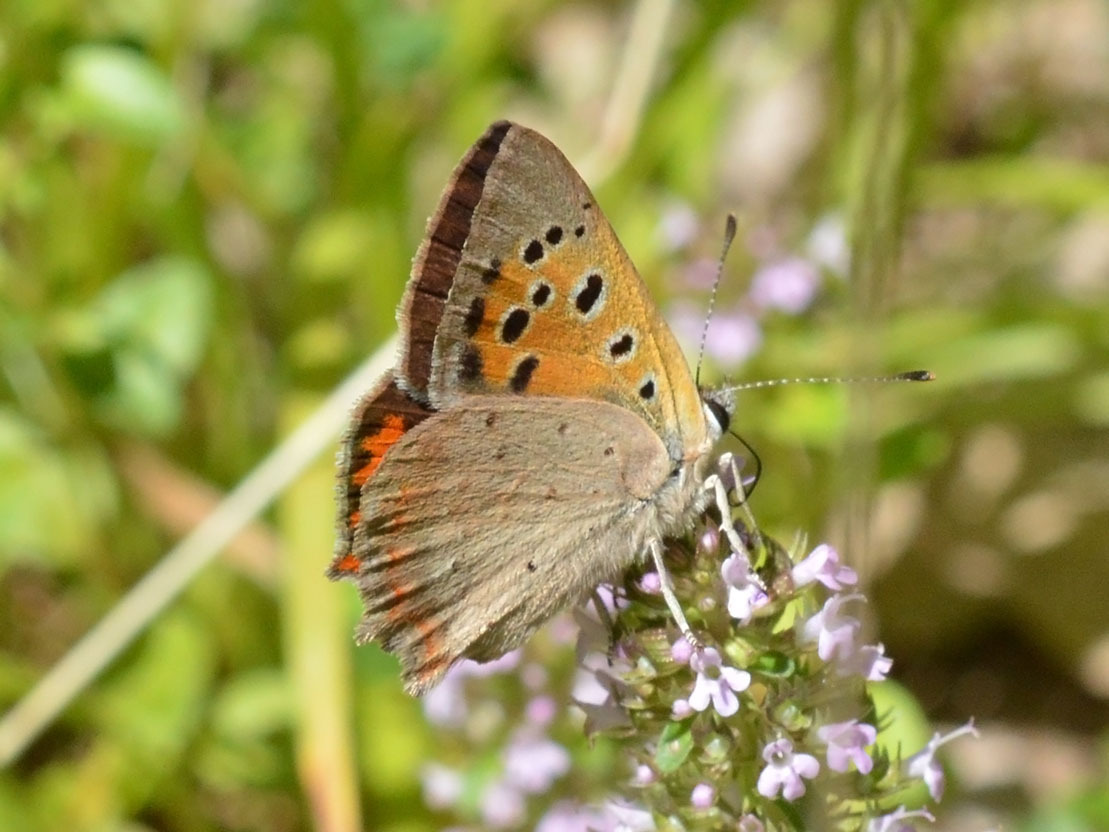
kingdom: Animalia
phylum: Arthropoda
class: Insecta
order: Lepidoptera
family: Lycaenidae
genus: Lycaena
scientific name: Lycaena phlaeas
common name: Small copper
